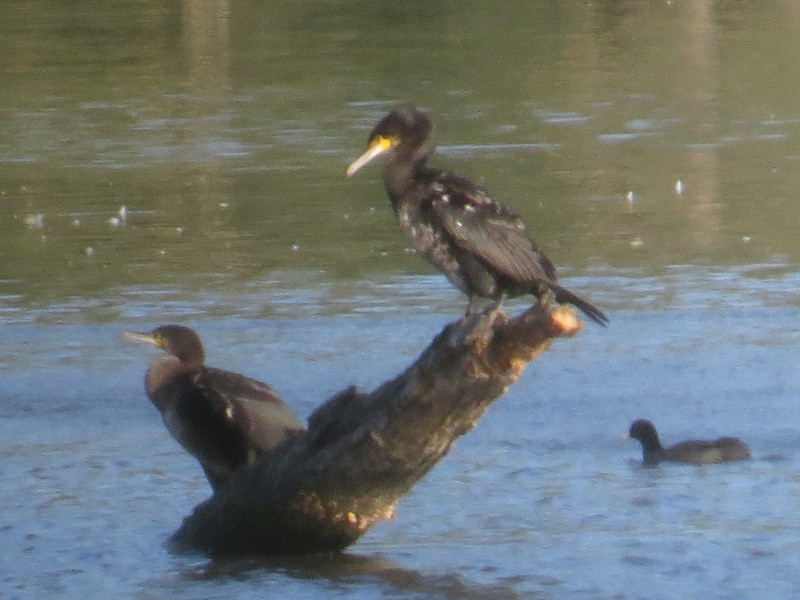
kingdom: Animalia
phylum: Chordata
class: Aves
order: Suliformes
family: Phalacrocoracidae
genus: Phalacrocorax
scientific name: Phalacrocorax carbo
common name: Great cormorant
